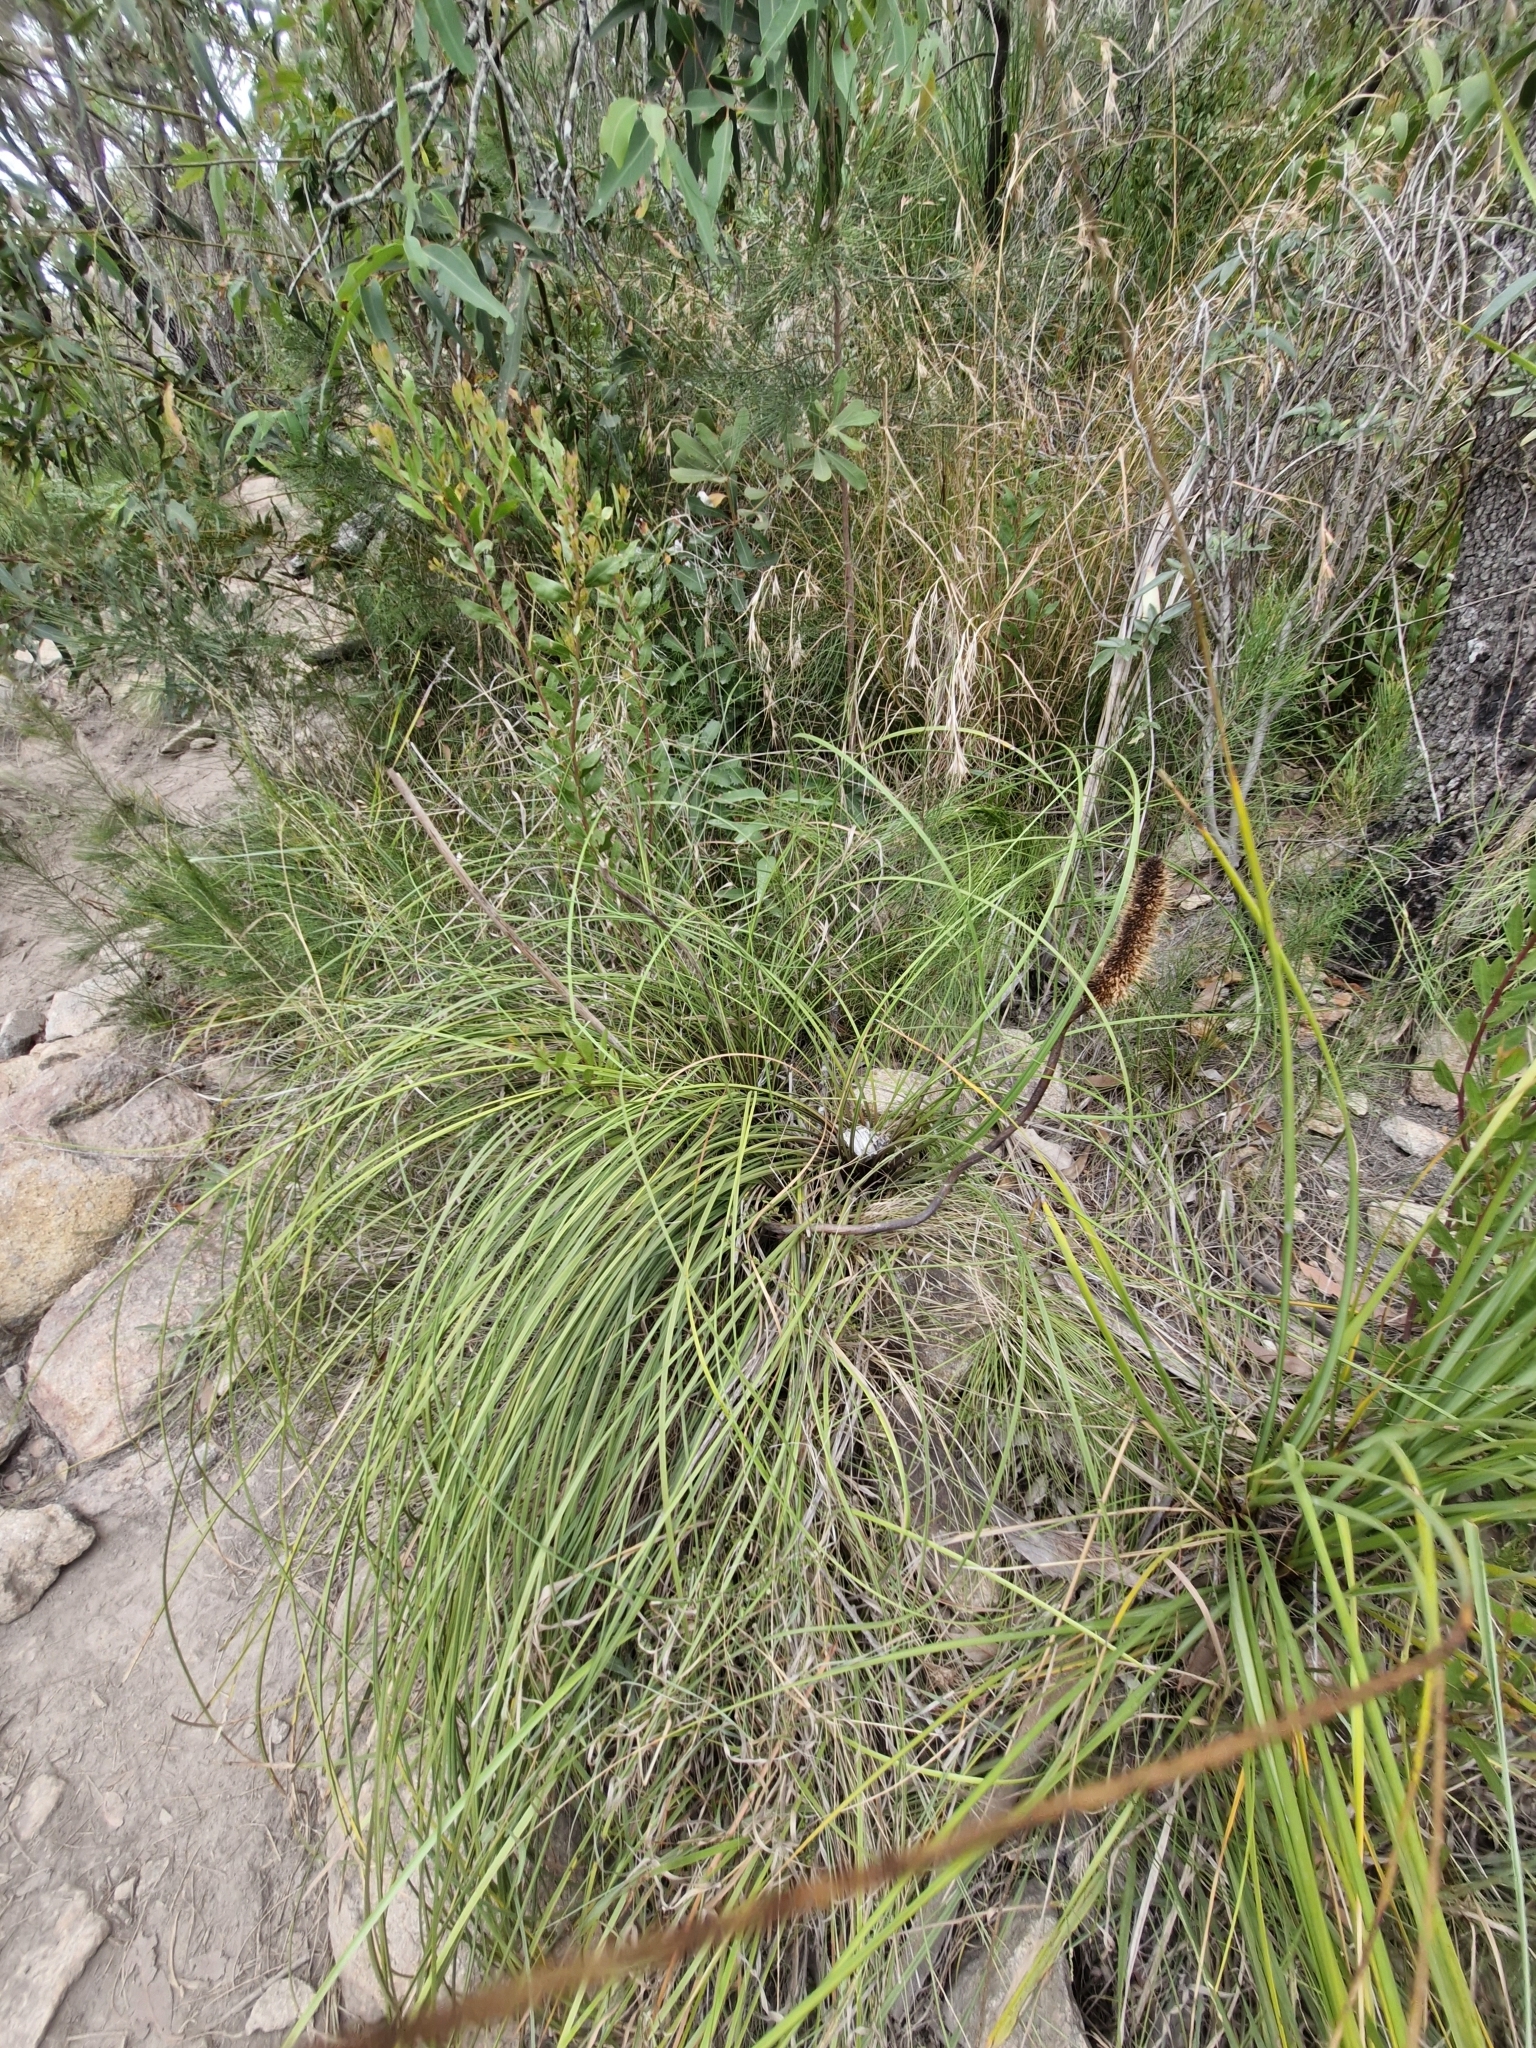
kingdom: Plantae
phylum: Tracheophyta
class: Liliopsida
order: Asparagales
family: Asphodelaceae
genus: Xanthorrhoea
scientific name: Xanthorrhoea macronema
